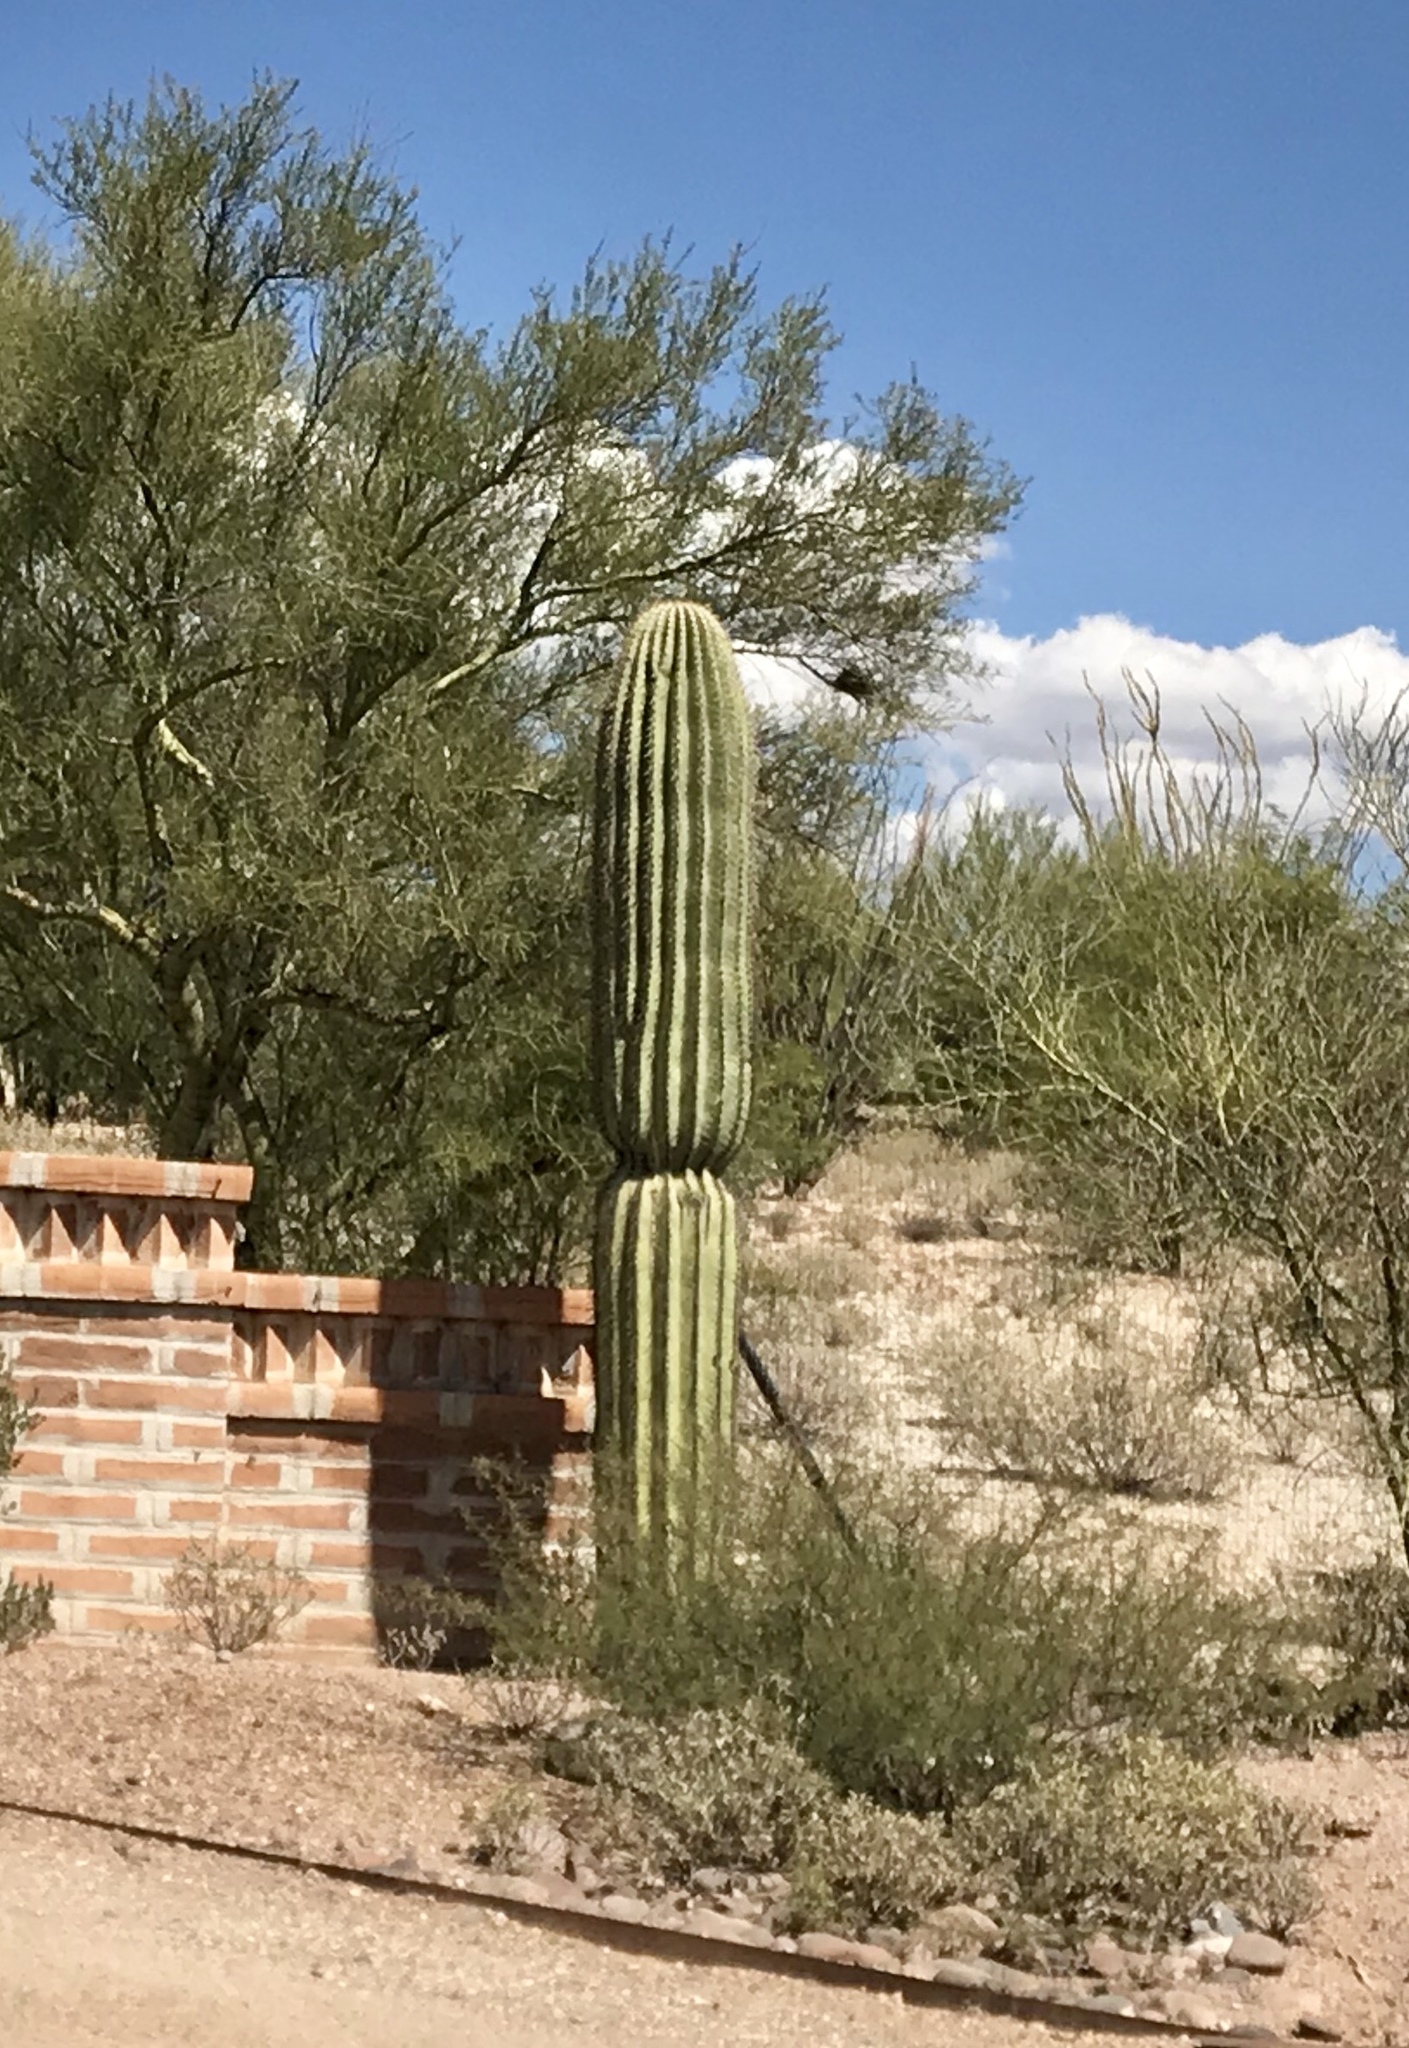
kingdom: Plantae
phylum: Tracheophyta
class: Magnoliopsida
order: Caryophyllales
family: Cactaceae
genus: Carnegiea
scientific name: Carnegiea gigantea
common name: Saguaro
